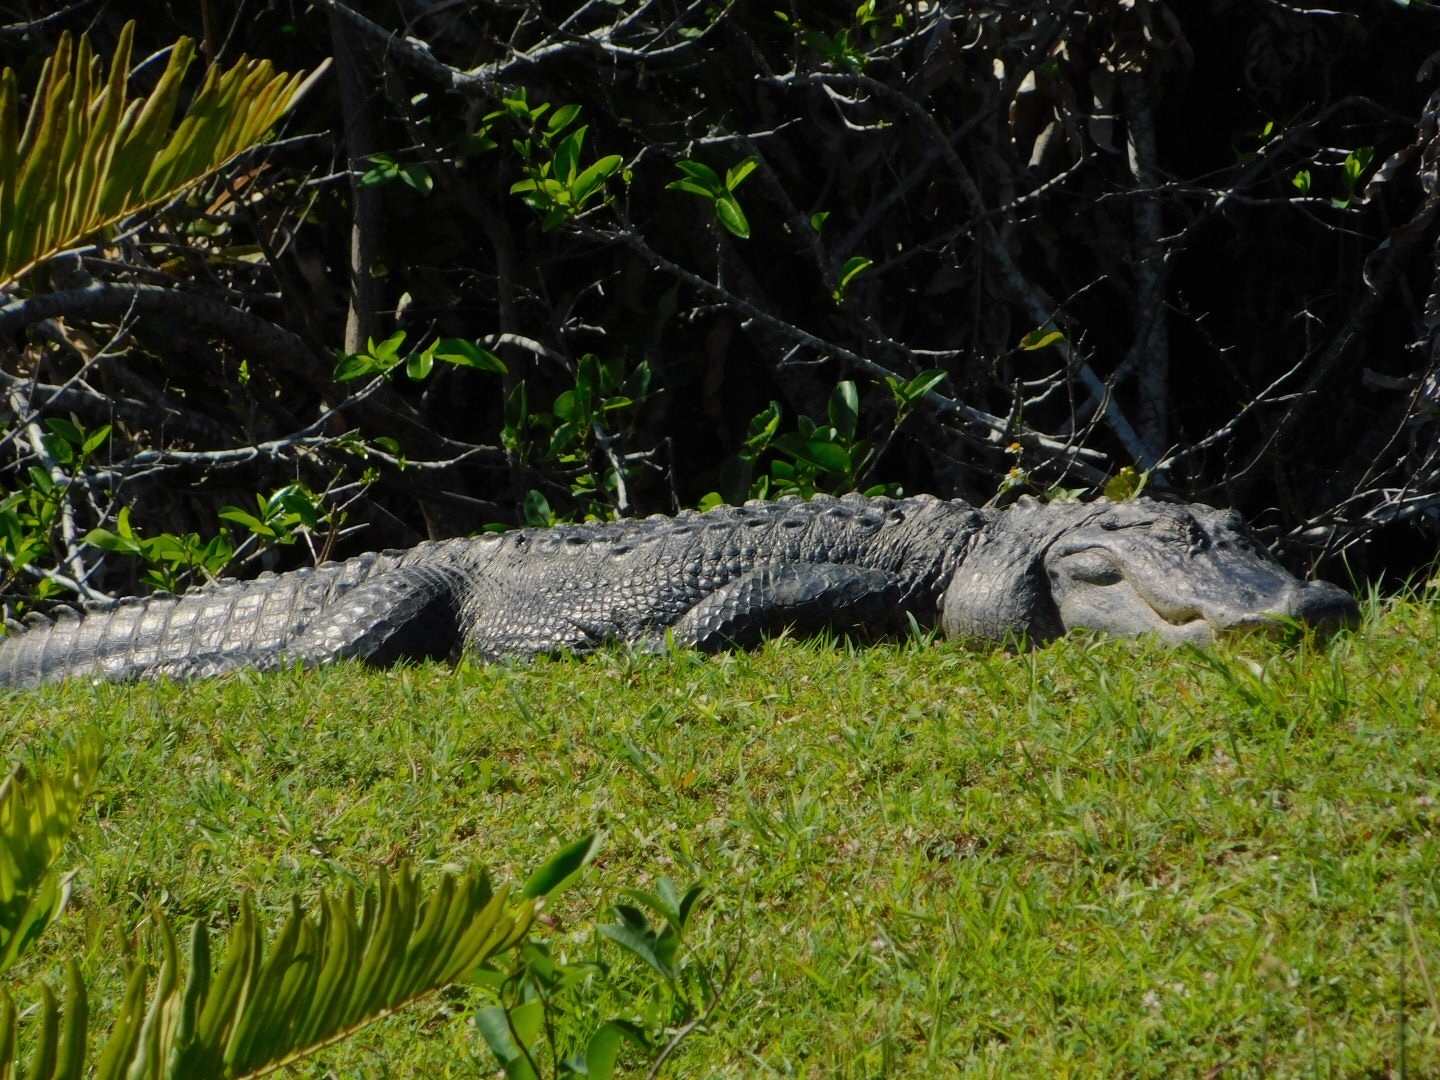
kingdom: Animalia
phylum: Chordata
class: Crocodylia
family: Alligatoridae
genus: Alligator
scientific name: Alligator mississippiensis
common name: American alligator
